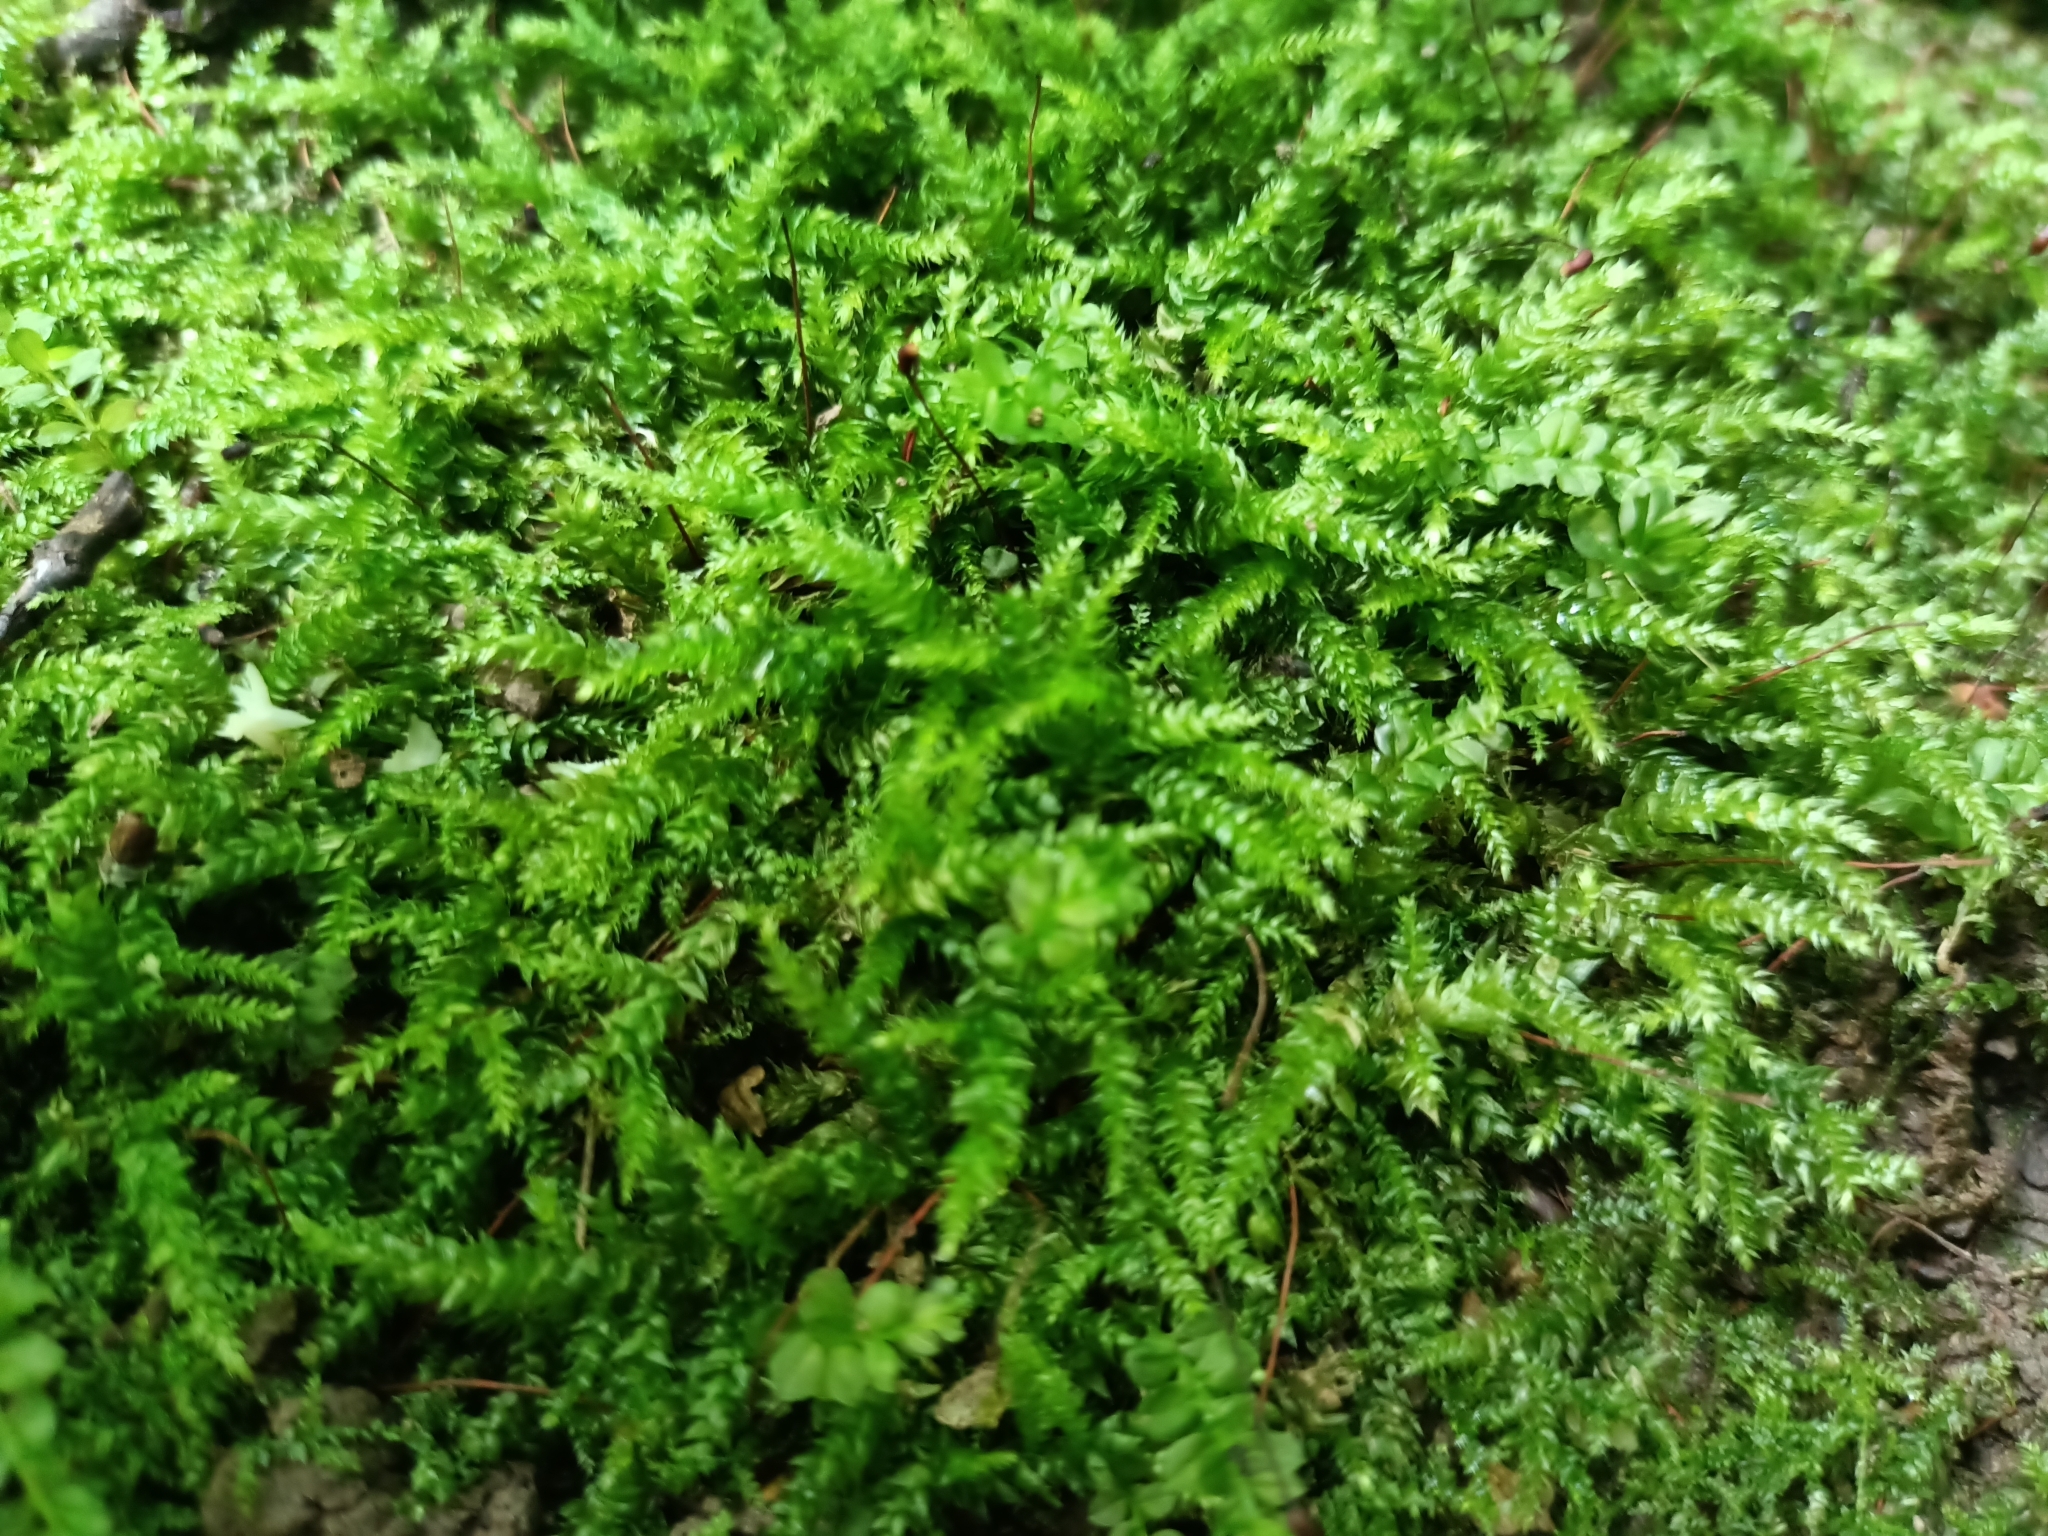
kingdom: Plantae
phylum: Bryophyta
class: Bryopsida
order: Hypnales
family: Brachytheciaceae
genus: Brachythecium
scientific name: Brachythecium rutabulum
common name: Rough-stalked feather-moss
